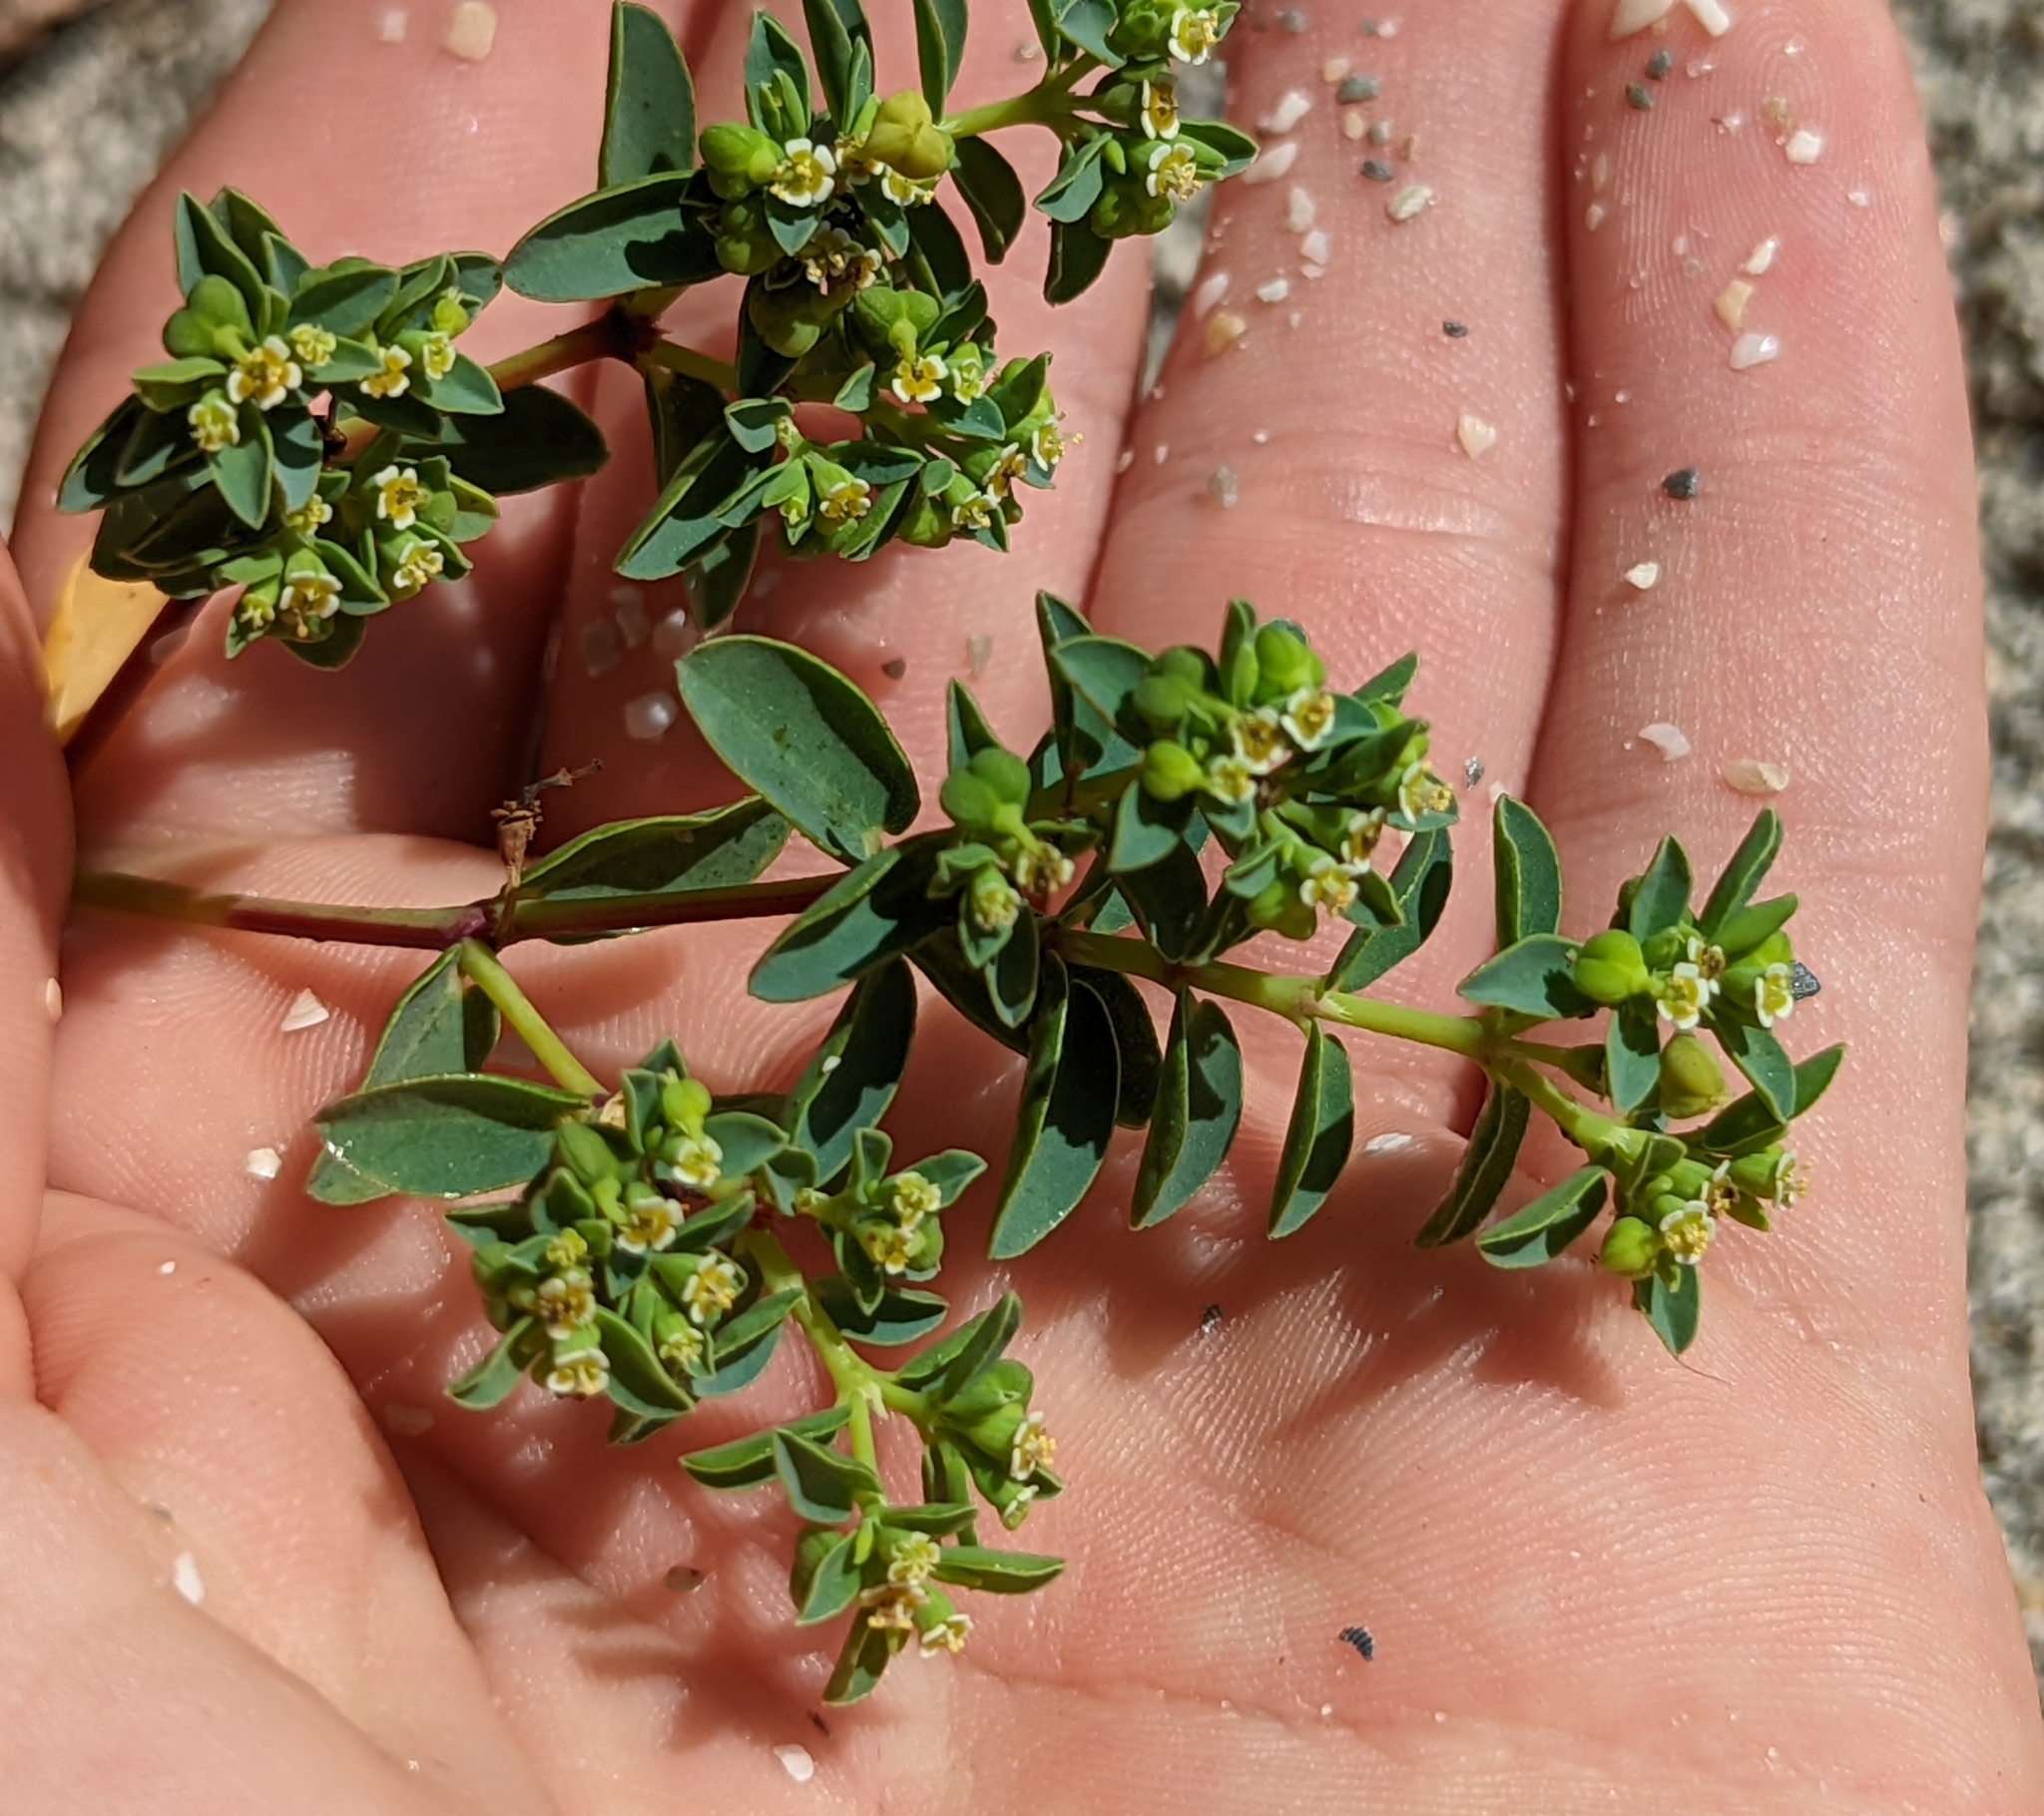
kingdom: Plantae
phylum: Tracheophyta
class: Magnoliopsida
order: Malpighiales
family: Euphorbiaceae
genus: Euphorbia
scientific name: Euphorbia mesembryanthemifolia
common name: Coastal beach sandmat
